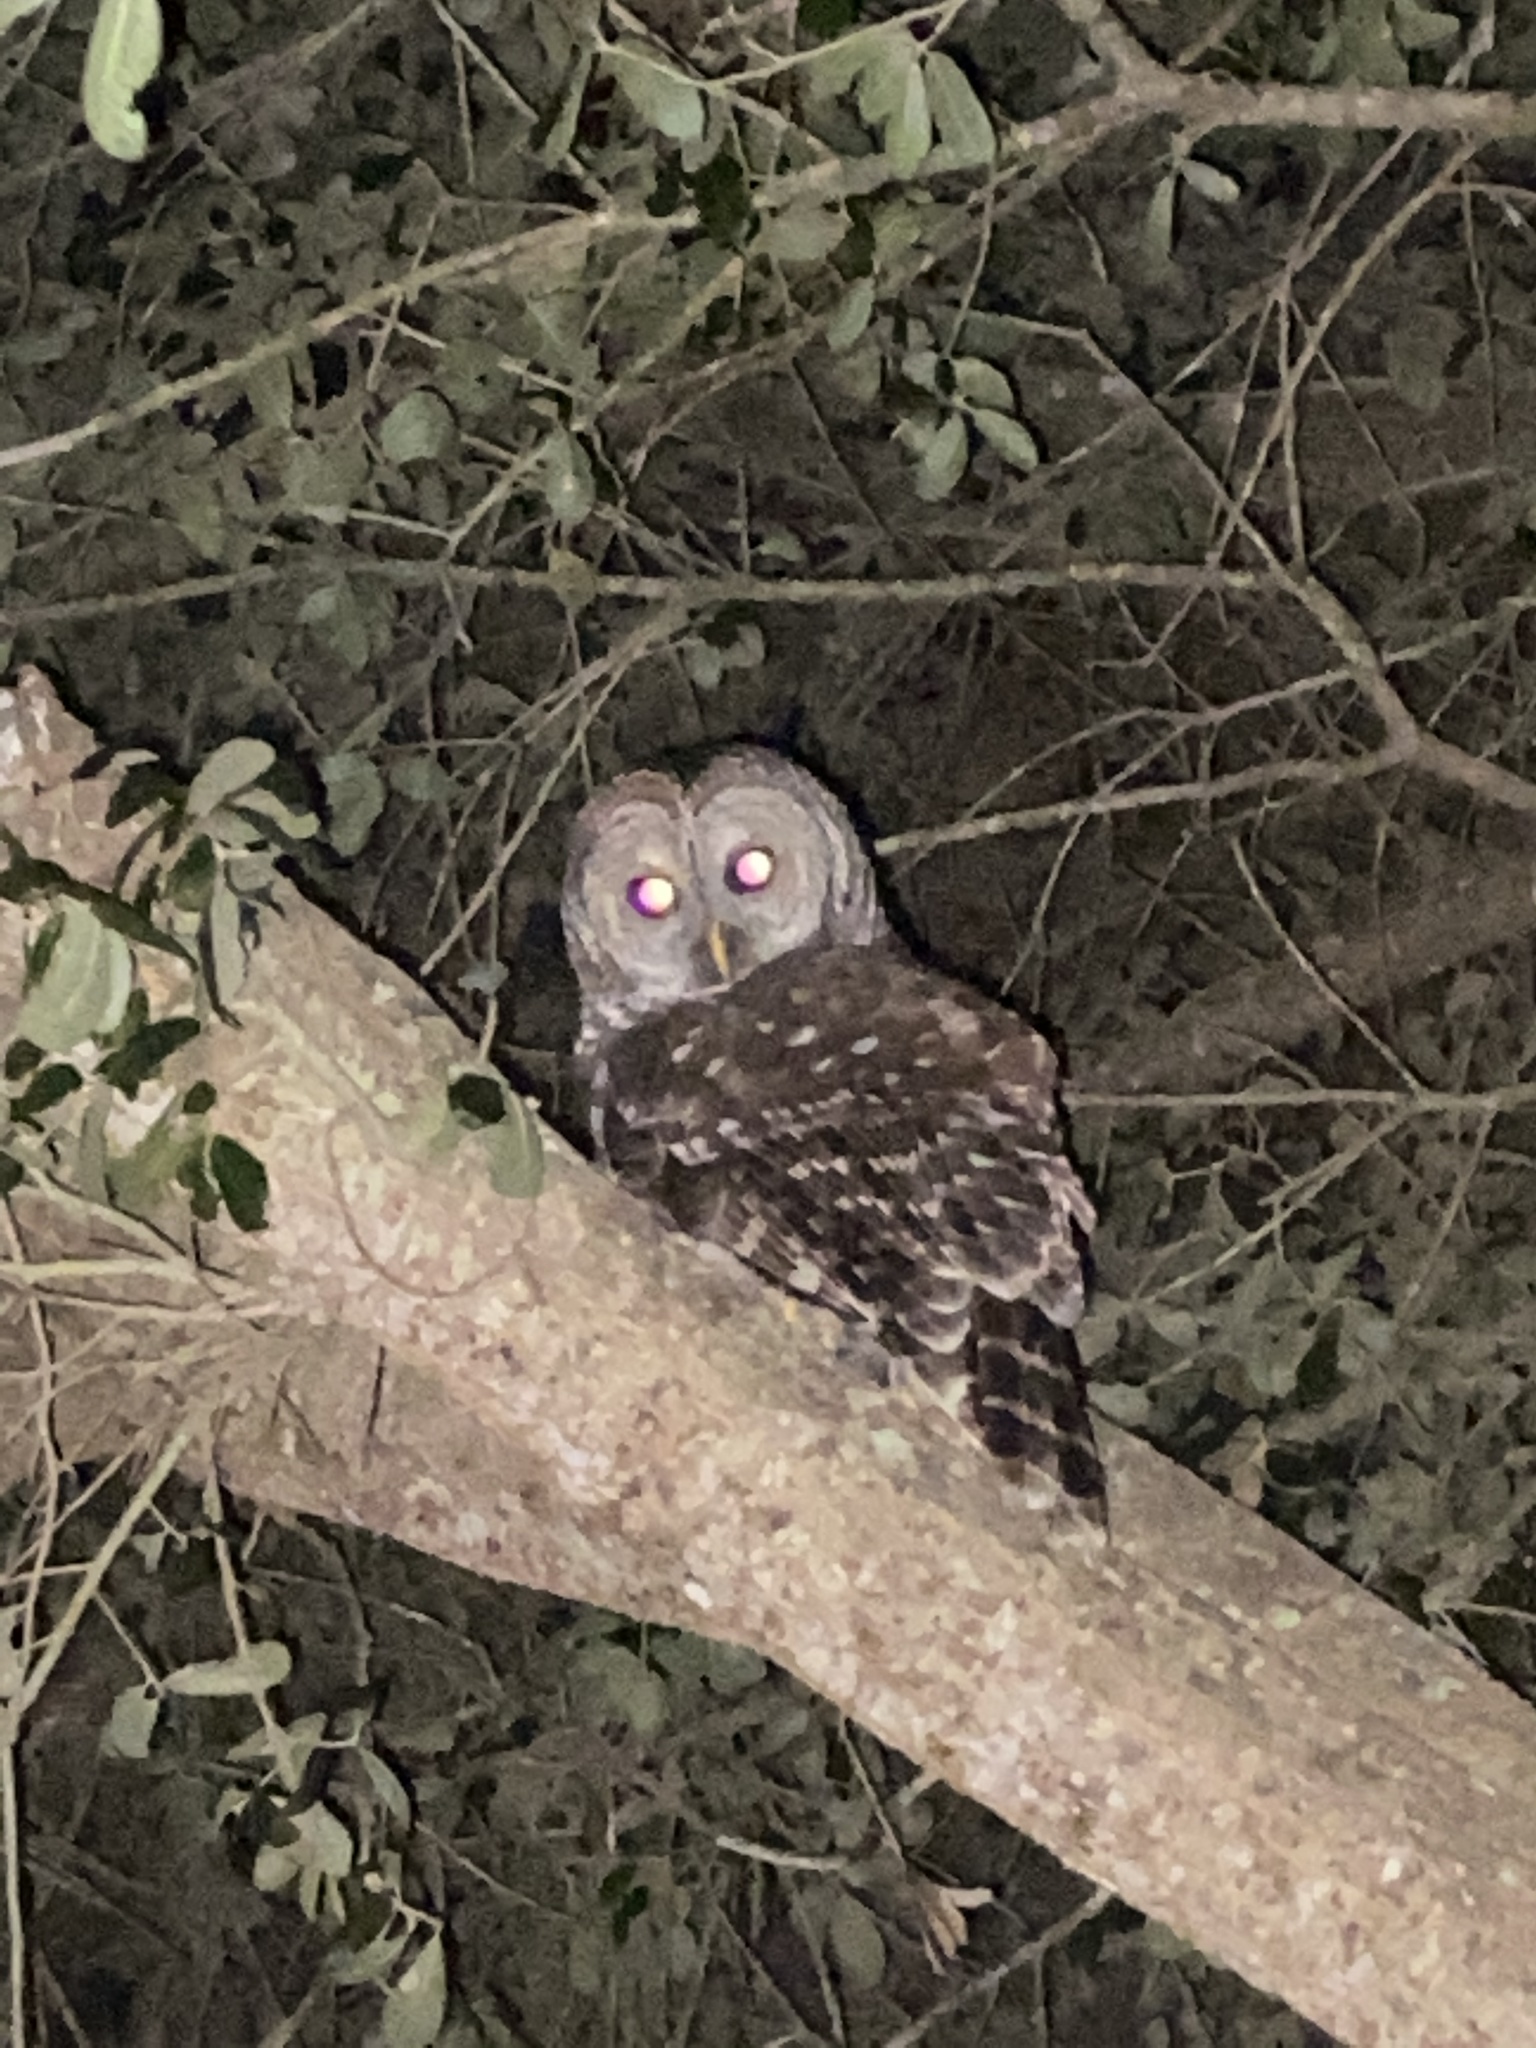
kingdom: Animalia
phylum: Chordata
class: Aves
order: Strigiformes
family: Strigidae
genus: Strix
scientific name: Strix varia
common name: Barred owl
